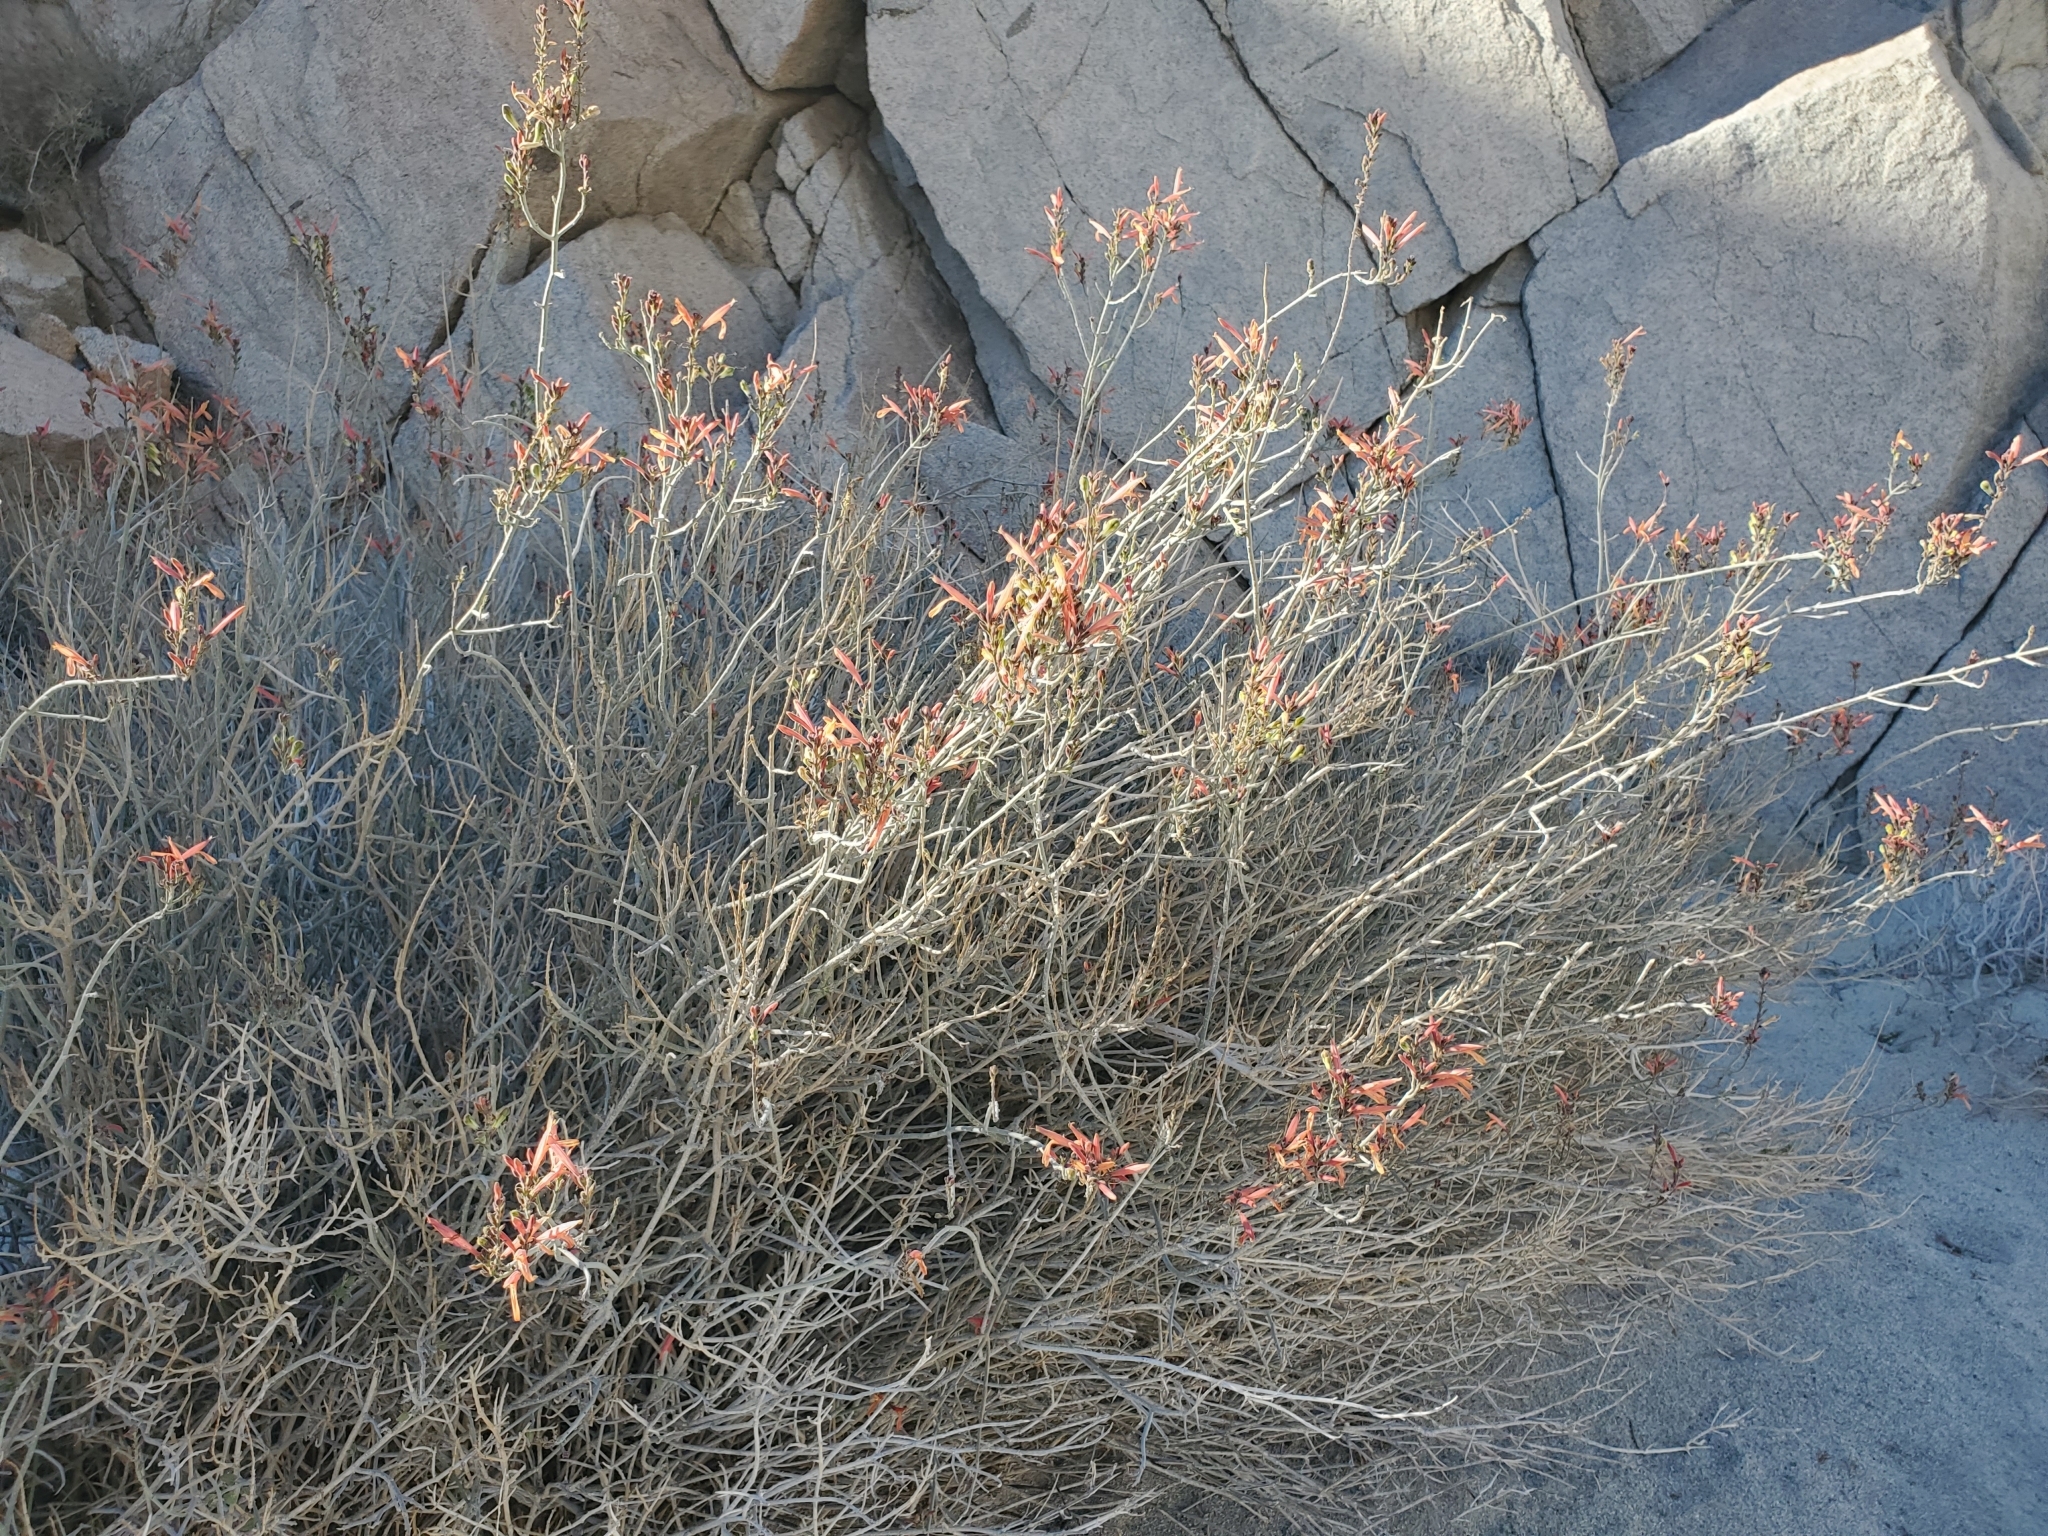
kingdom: Plantae
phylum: Tracheophyta
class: Magnoliopsida
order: Lamiales
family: Acanthaceae
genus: Justicia
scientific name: Justicia californica
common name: Chuparosa-honeysuckle
